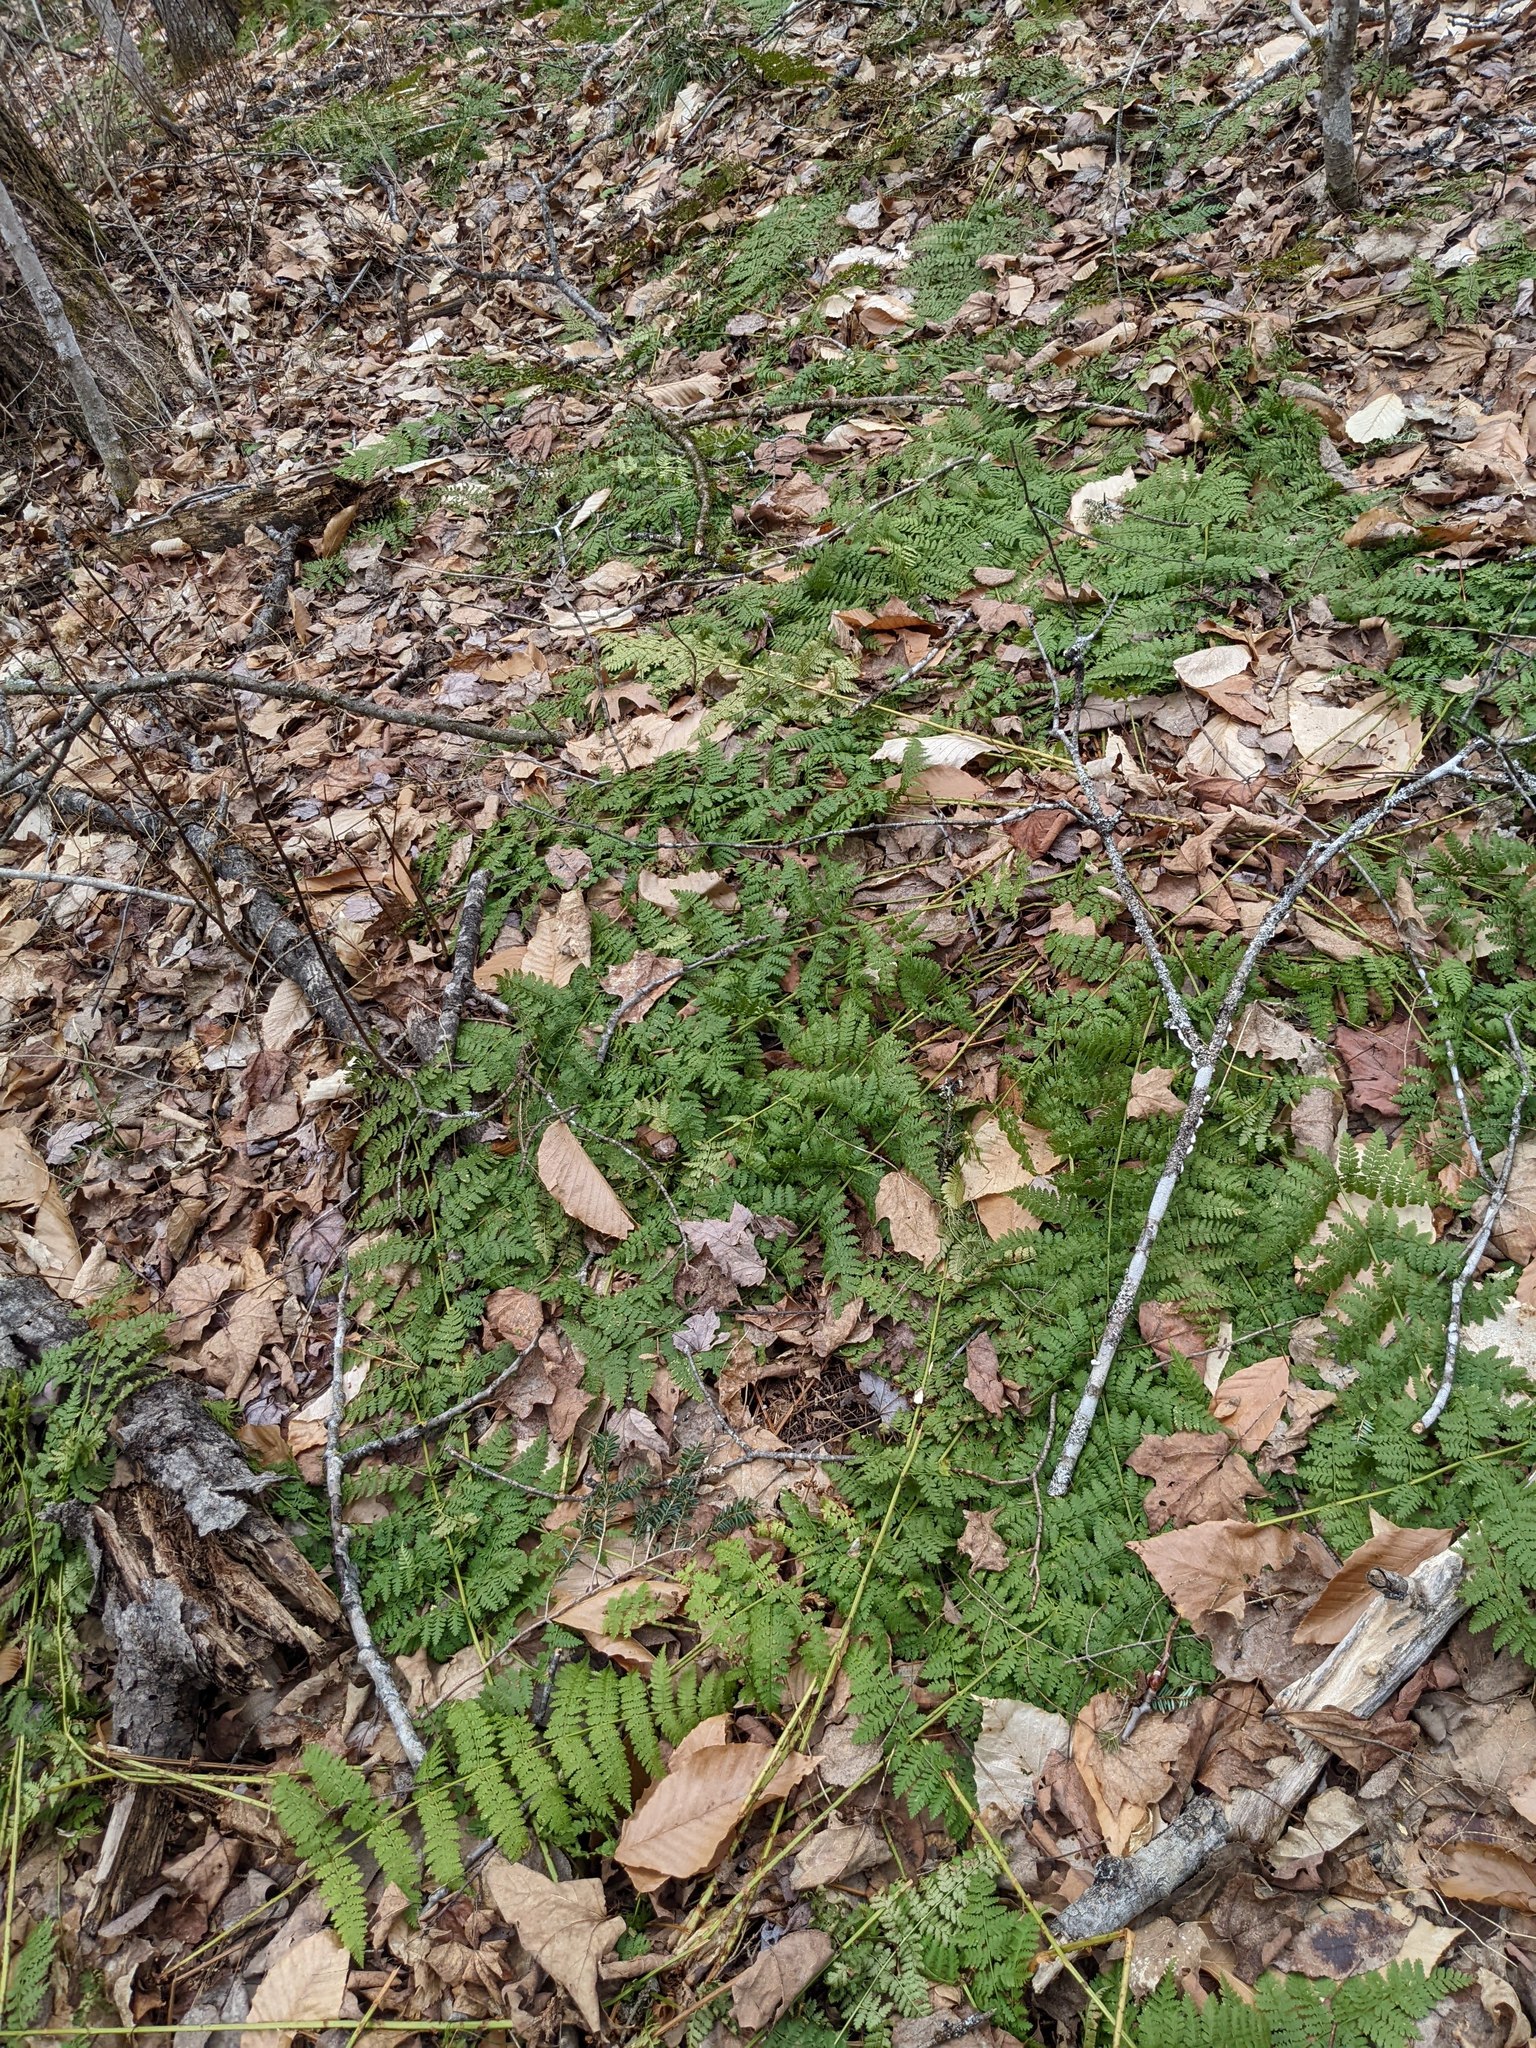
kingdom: Plantae
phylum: Tracheophyta
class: Polypodiopsida
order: Polypodiales
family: Dryopteridaceae
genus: Dryopteris
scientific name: Dryopteris intermedia
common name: Evergreen wood fern
